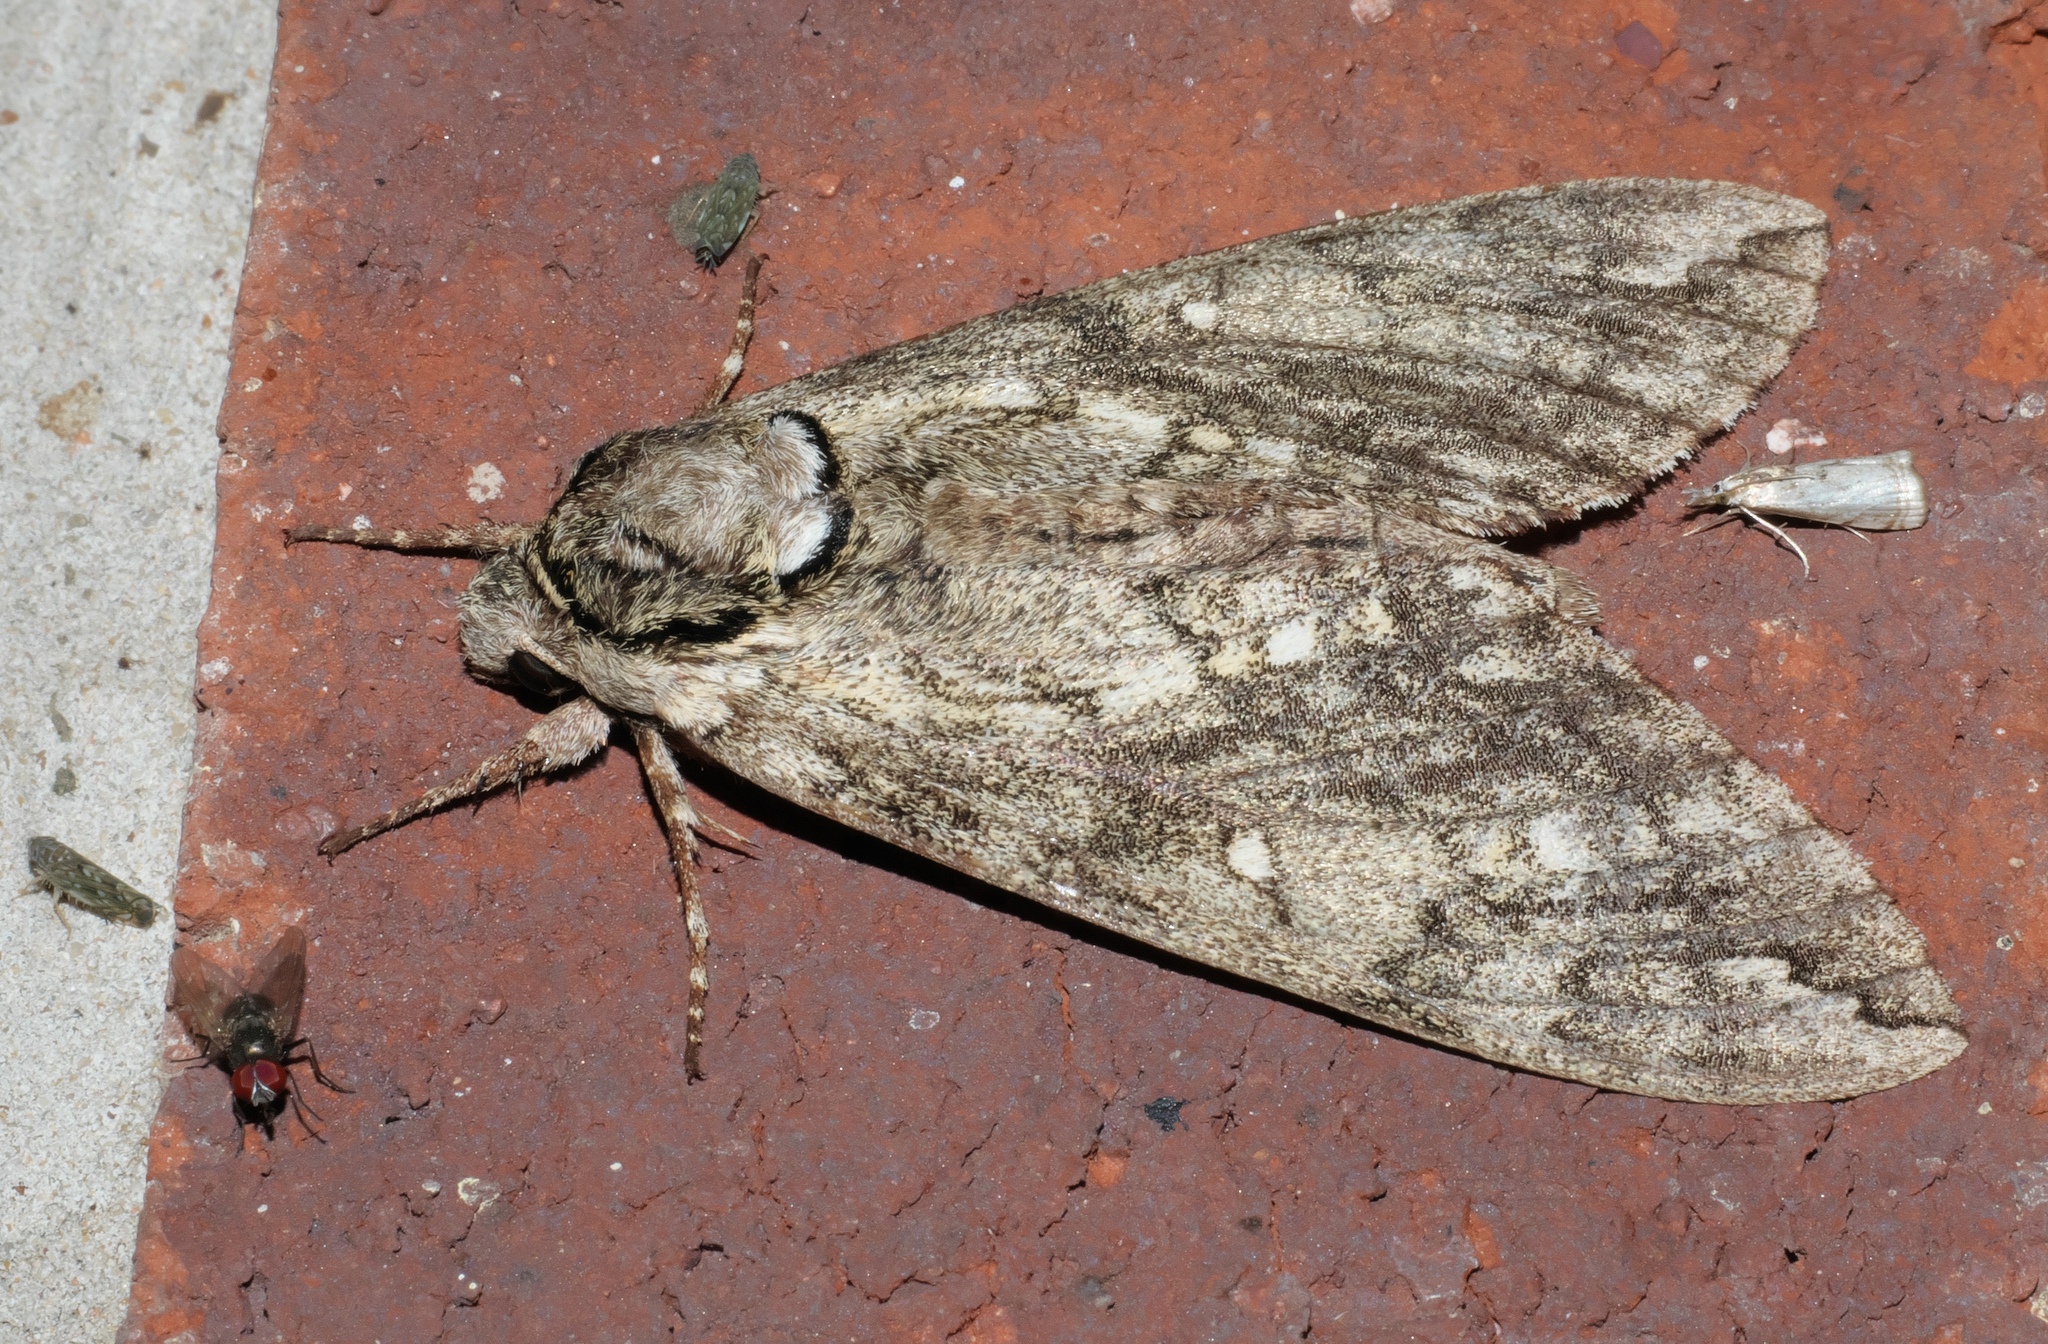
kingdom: Animalia
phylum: Arthropoda
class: Insecta
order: Lepidoptera
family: Sphingidae
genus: Ceratomia
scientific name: Ceratomia undulosa
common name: Waved sphinx
